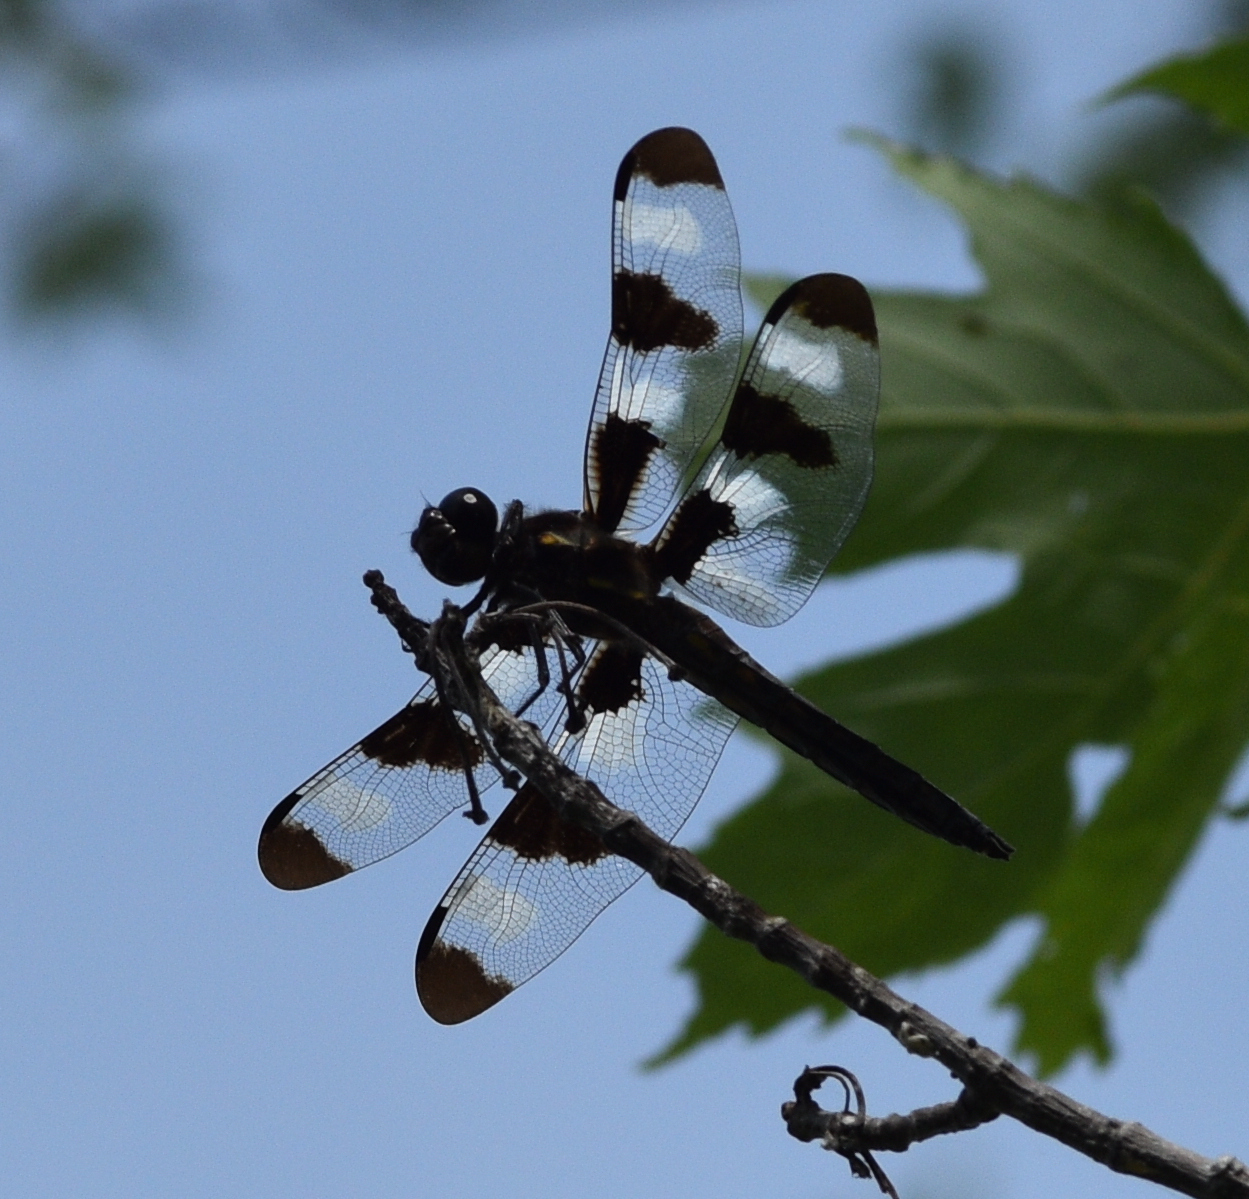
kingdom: Animalia
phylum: Arthropoda
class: Insecta
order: Odonata
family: Libellulidae
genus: Libellula
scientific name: Libellula pulchella
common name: Twelve-spotted skimmer
